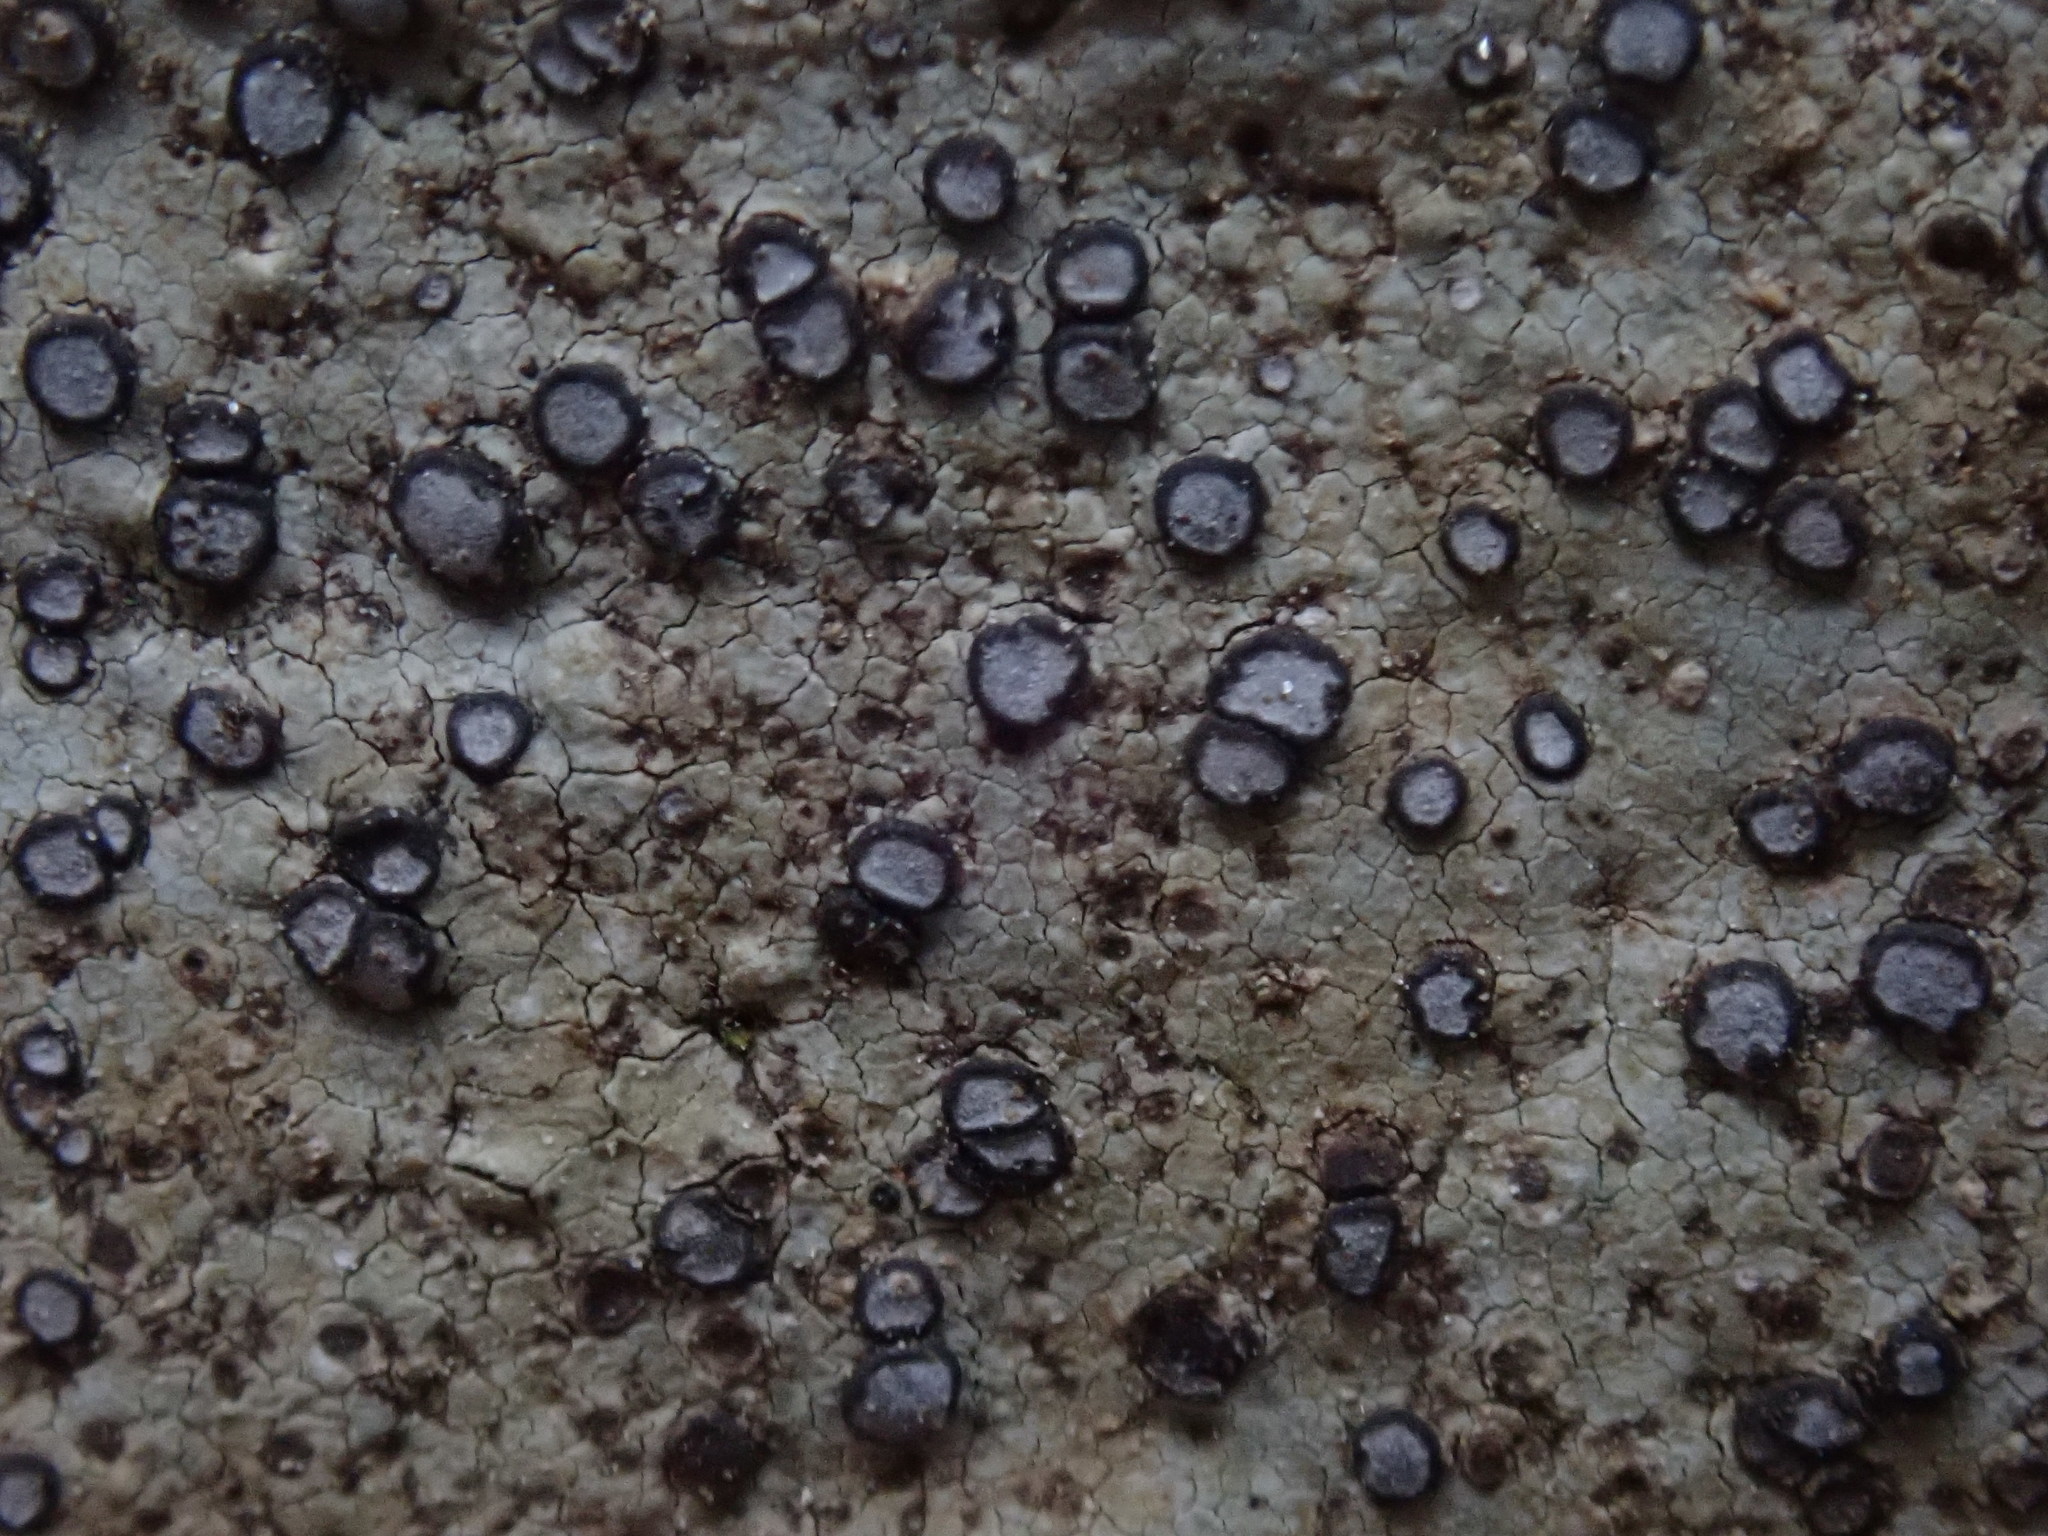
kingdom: Fungi
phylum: Ascomycota
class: Lecanoromycetes
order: Lecideales
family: Lecideaceae
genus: Porpidia
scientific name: Porpidia albocaerulescens
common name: Smokey-eyed boulder lichen
